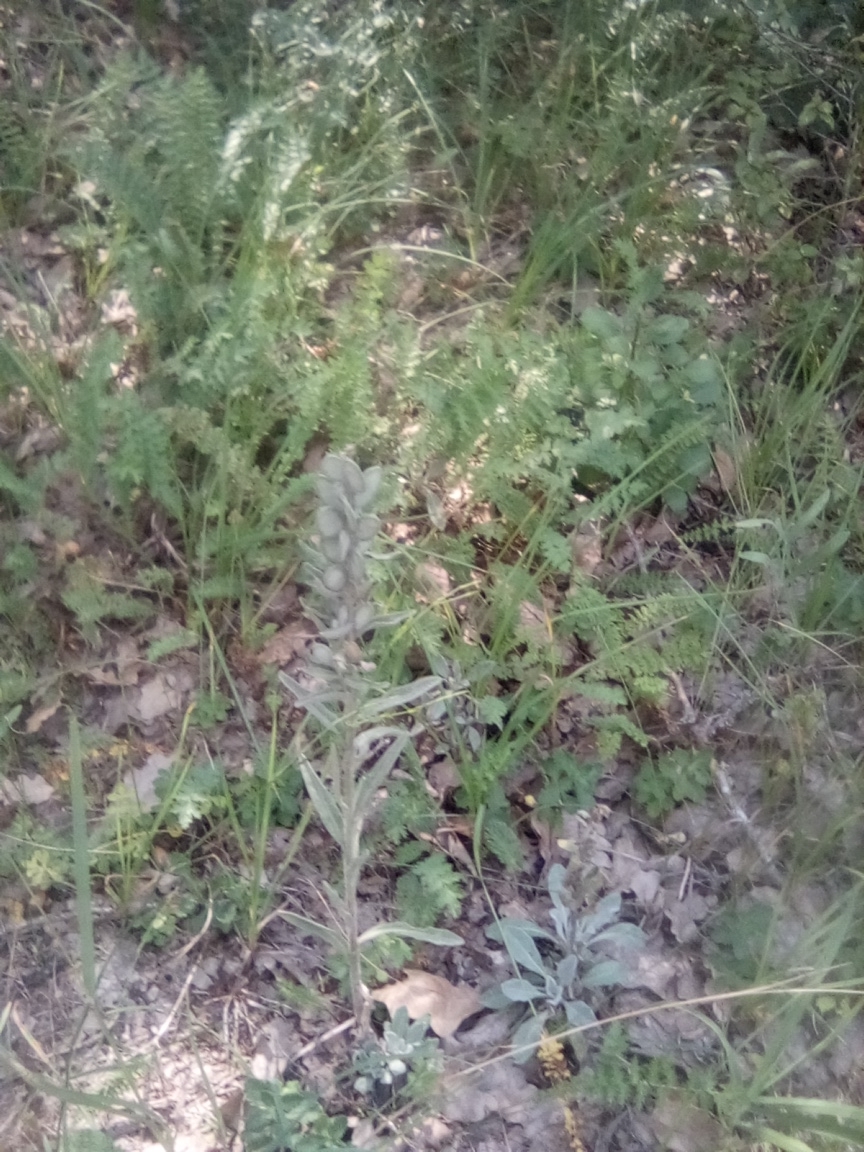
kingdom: Plantae
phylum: Tracheophyta
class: Magnoliopsida
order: Brassicales
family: Brassicaceae
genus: Fibigia
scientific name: Fibigia clypeata
